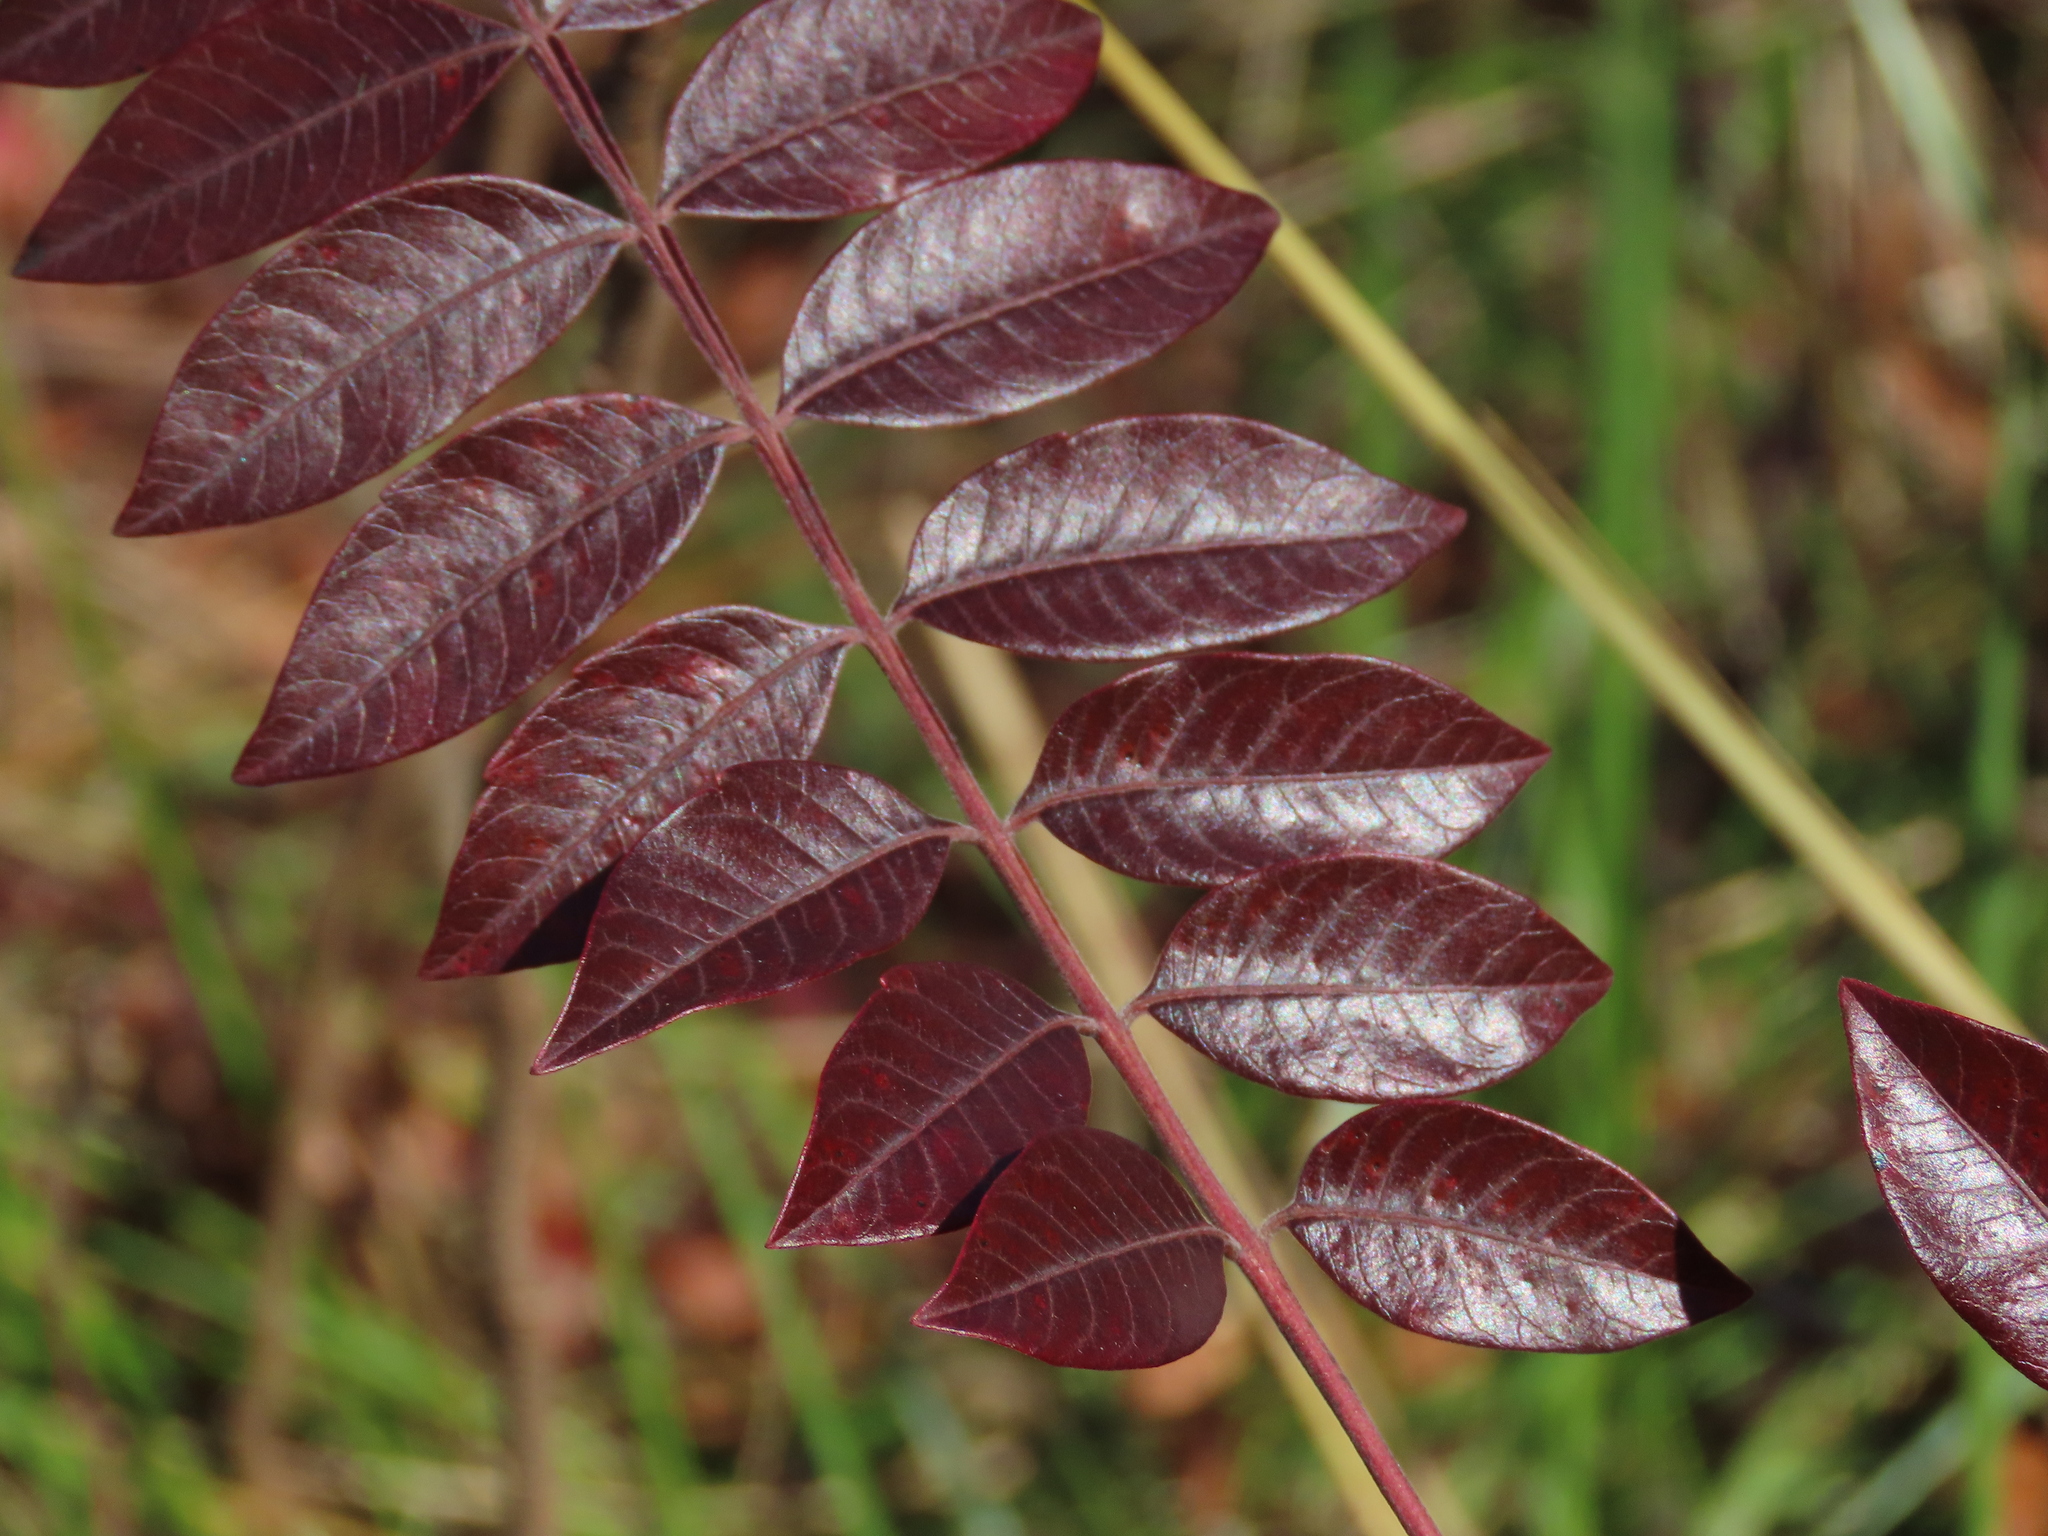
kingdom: Plantae
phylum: Tracheophyta
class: Magnoliopsida
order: Sapindales
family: Anacardiaceae
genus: Rhus
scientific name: Rhus copallina
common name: Shining sumac
